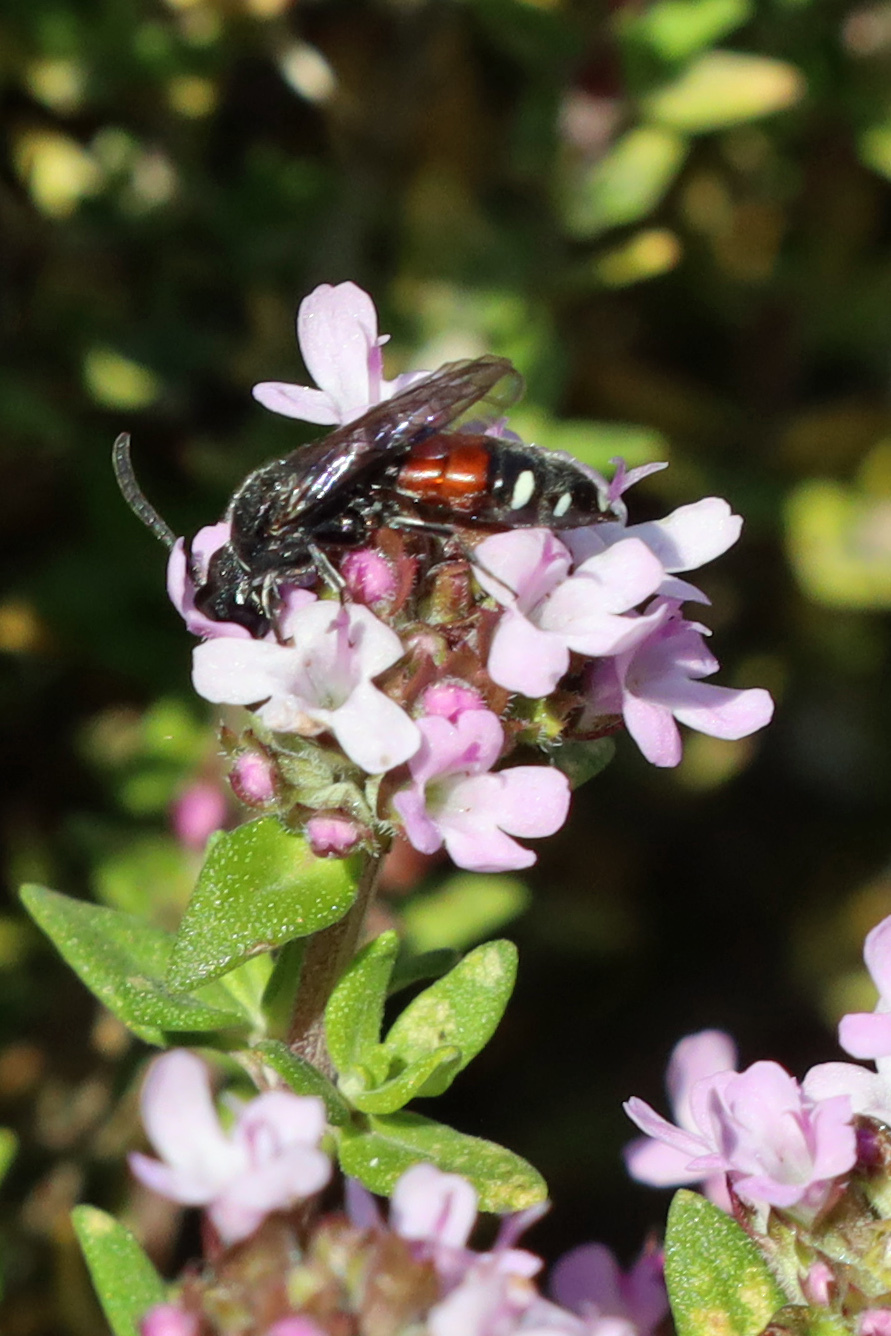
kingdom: Animalia
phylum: Arthropoda
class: Insecta
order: Hymenoptera
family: Sapygidae
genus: Sapyga
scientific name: Sapyga quinquepunctata
